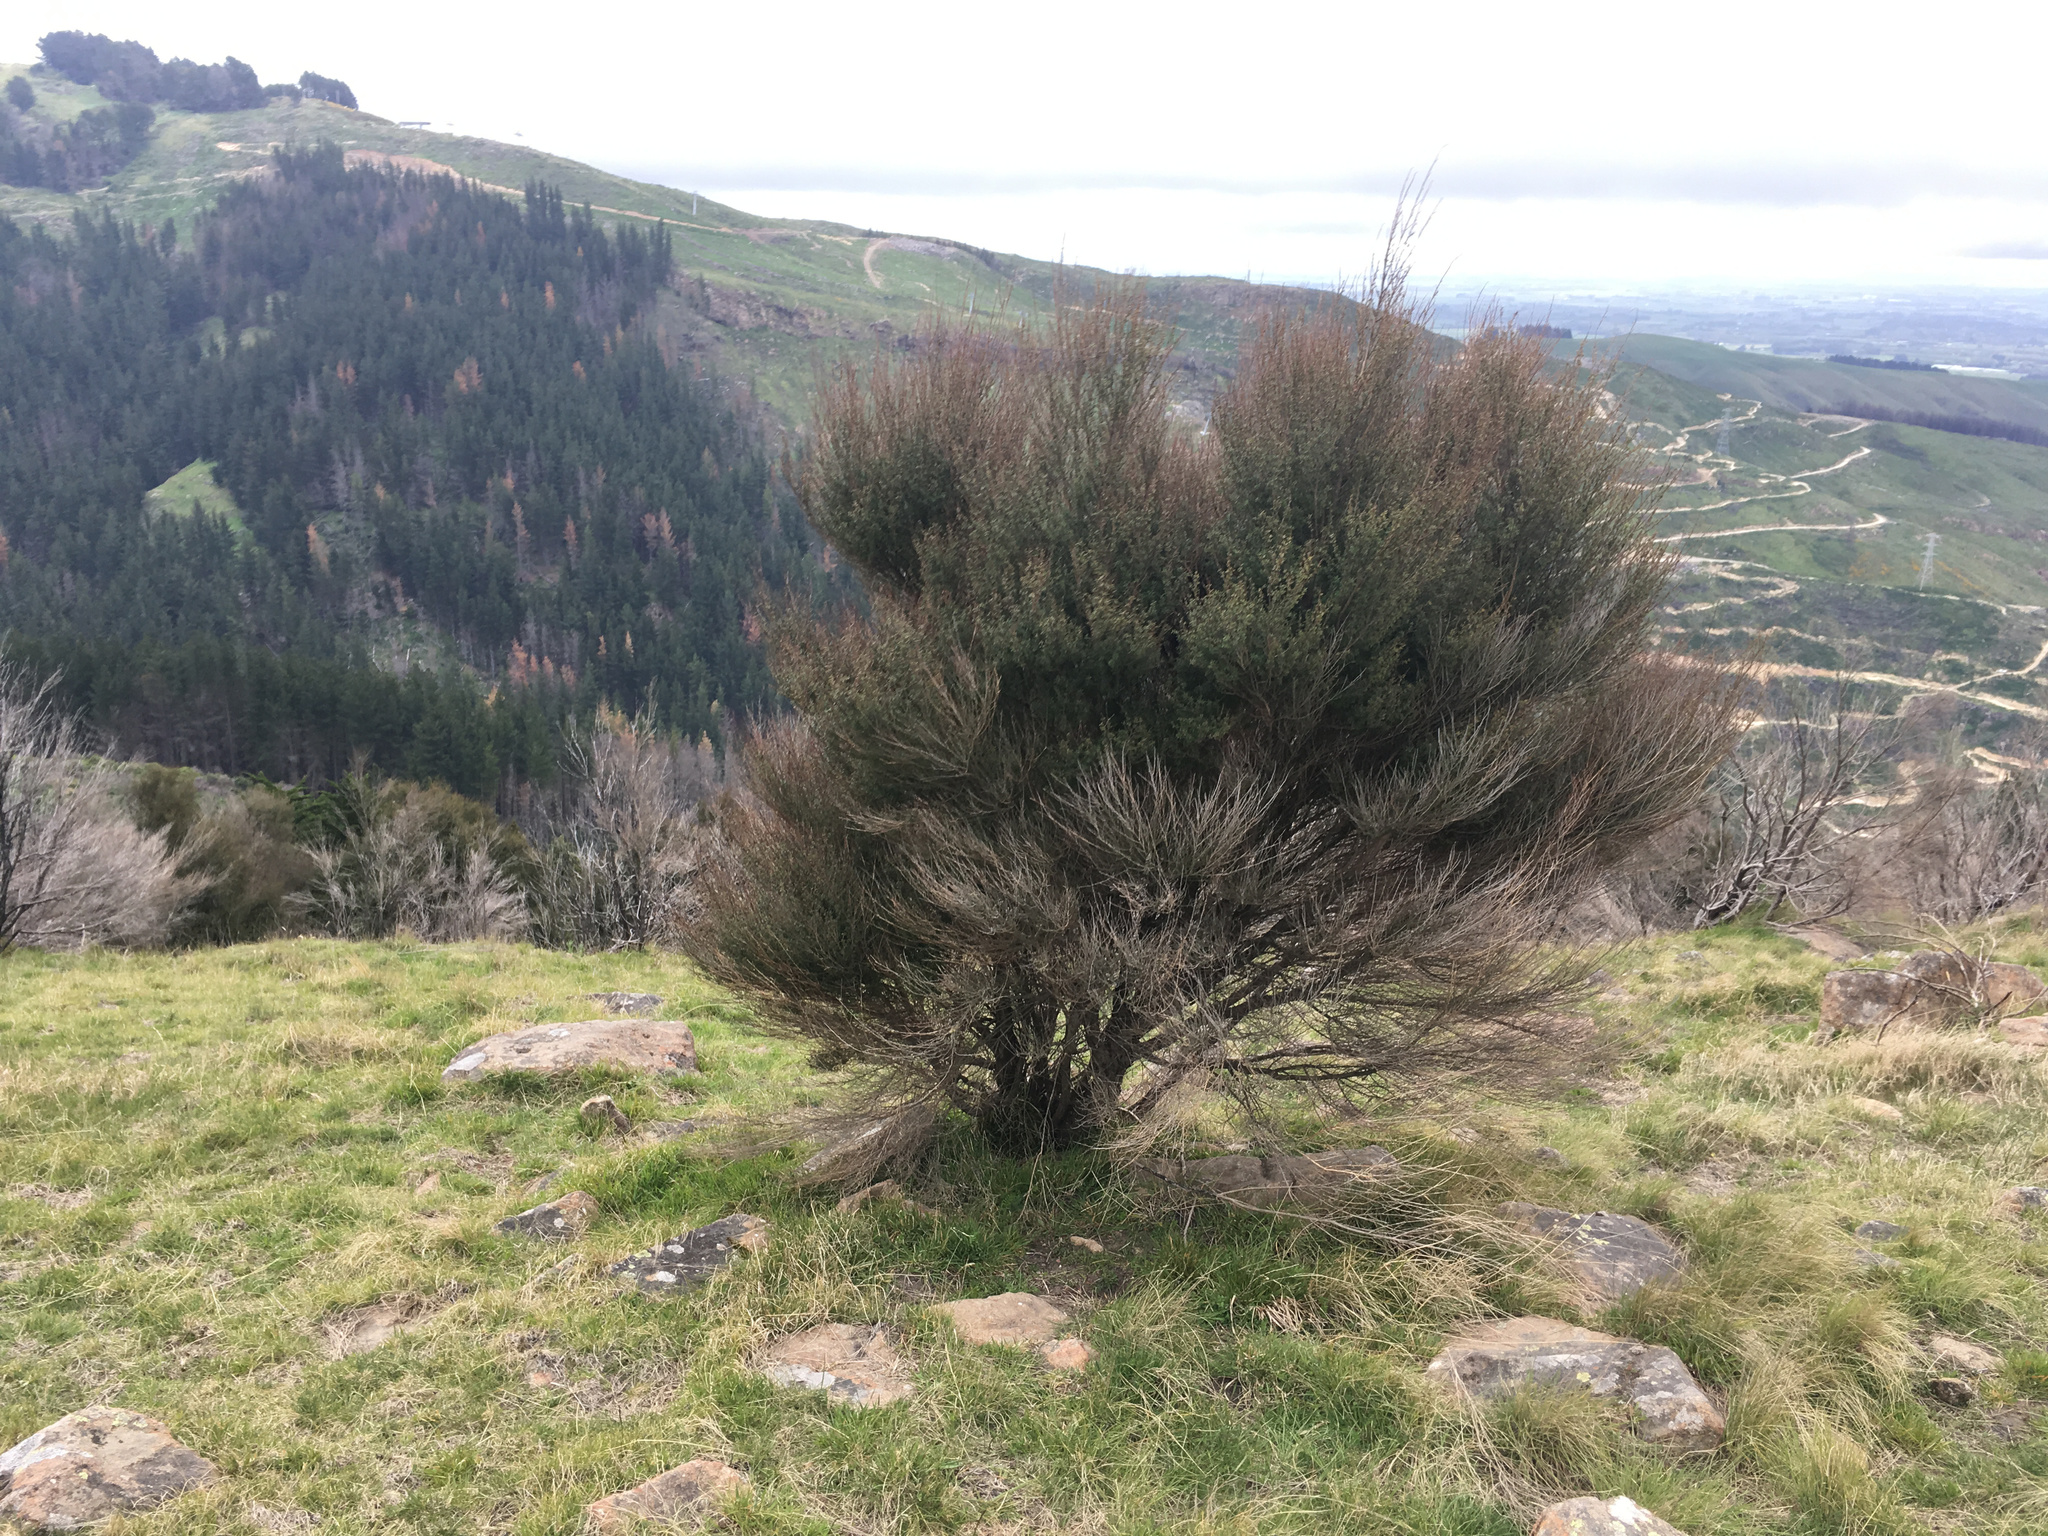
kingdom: Plantae
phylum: Tracheophyta
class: Magnoliopsida
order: Myrtales
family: Myrtaceae
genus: Kunzea
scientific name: Kunzea robusta
